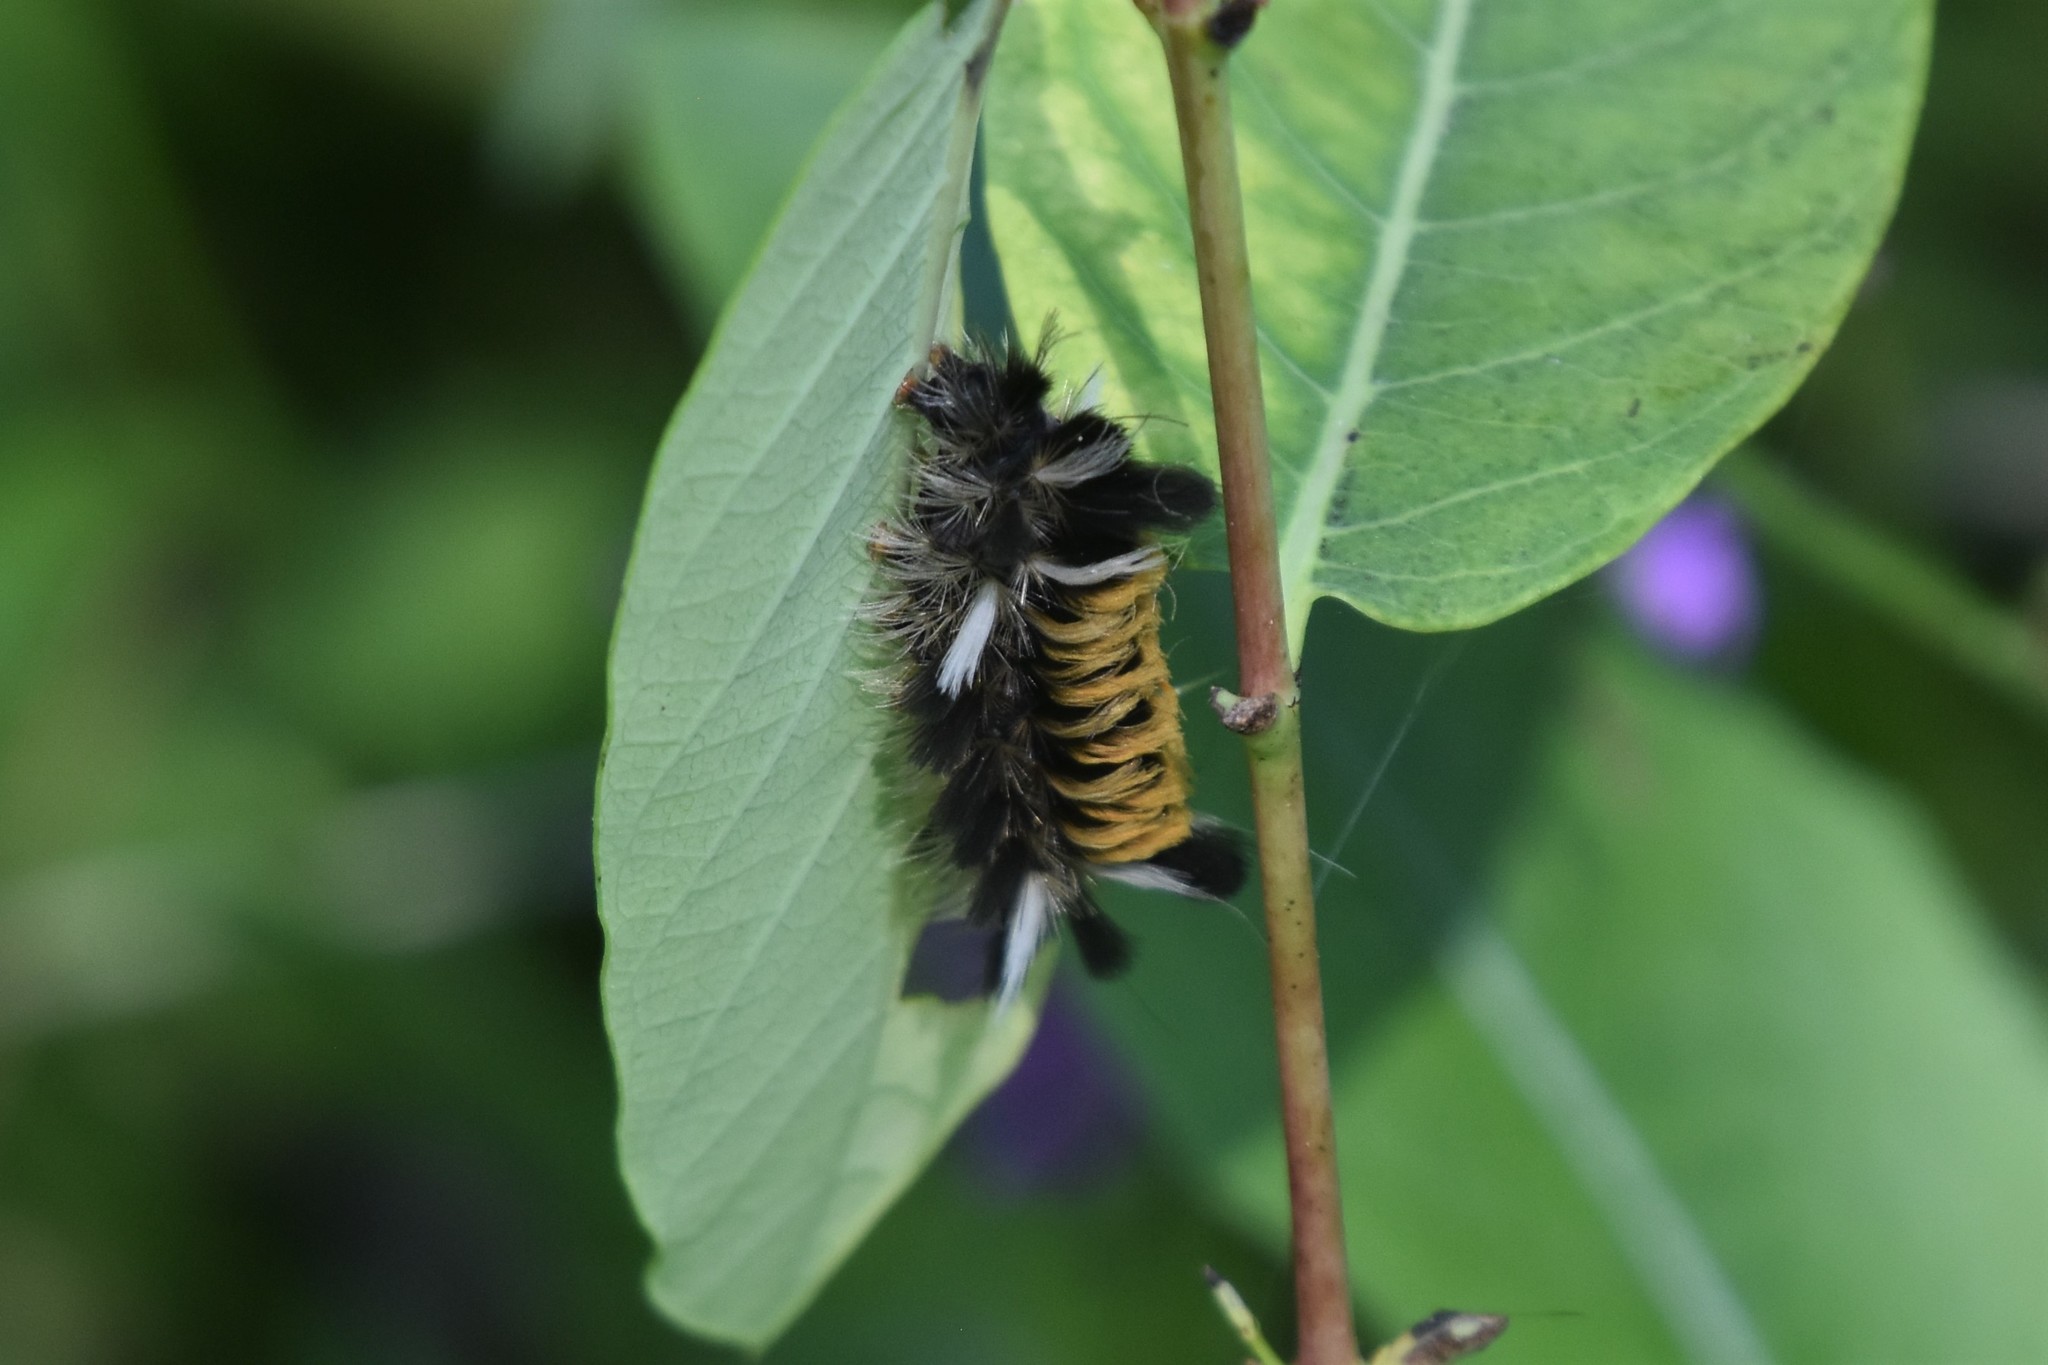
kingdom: Animalia
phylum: Arthropoda
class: Insecta
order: Lepidoptera
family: Erebidae
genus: Euchaetes
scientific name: Euchaetes egle
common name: Milkweed tussock moth
